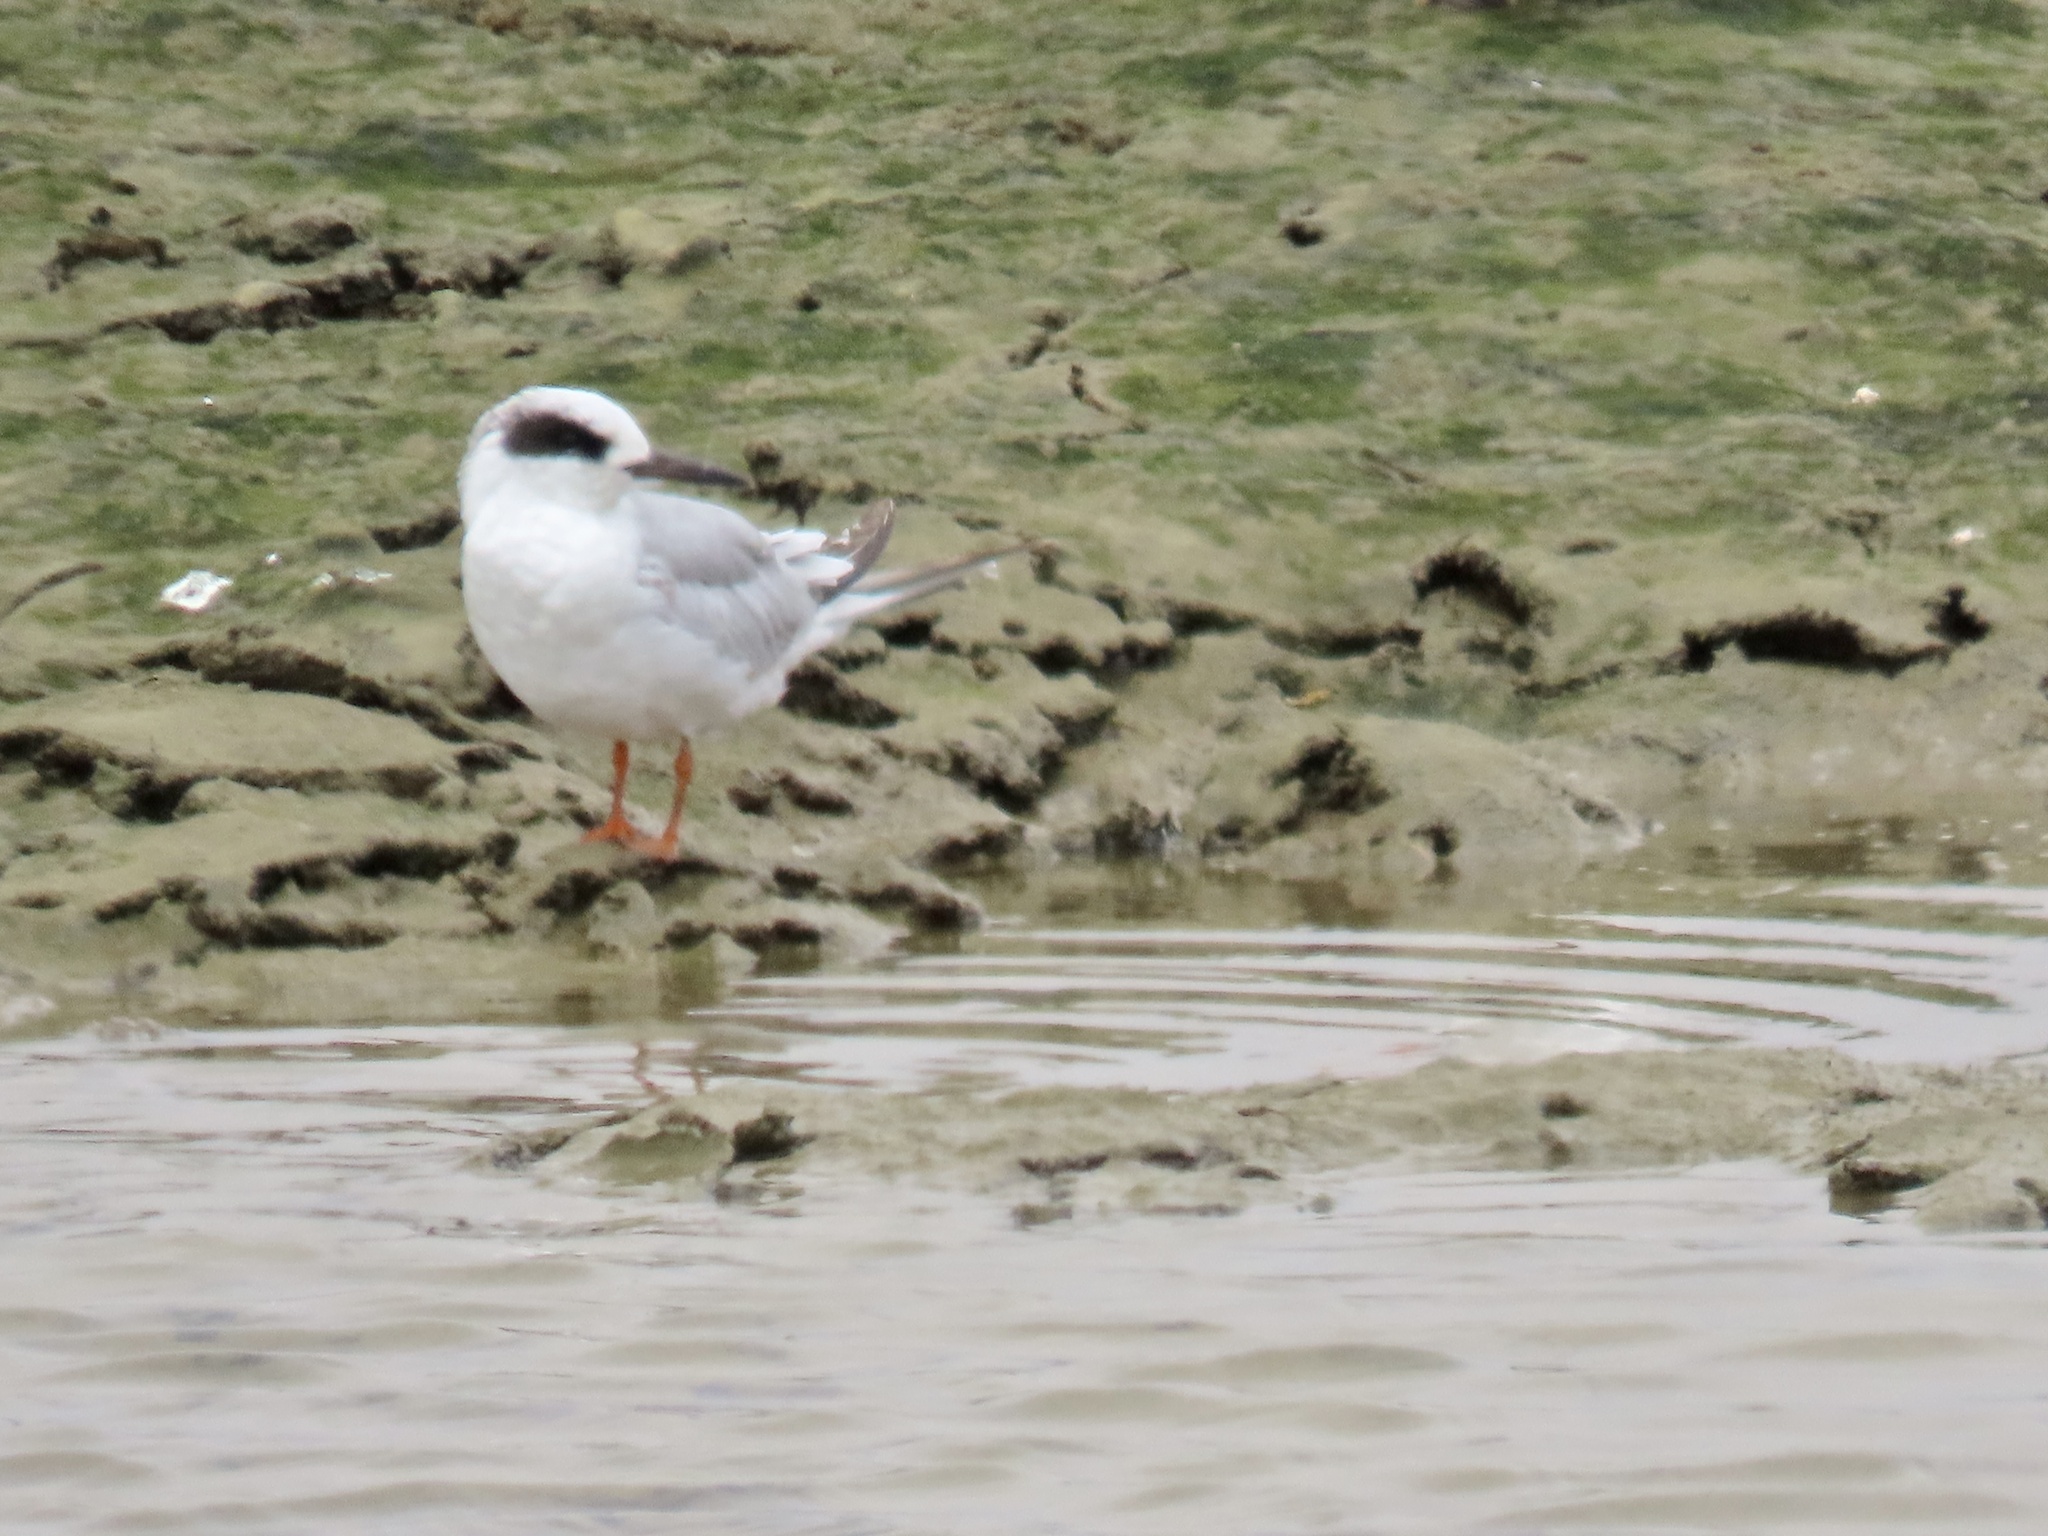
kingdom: Animalia
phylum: Chordata
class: Aves
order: Charadriiformes
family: Laridae
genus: Sterna
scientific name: Sterna forsteri
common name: Forster's tern
